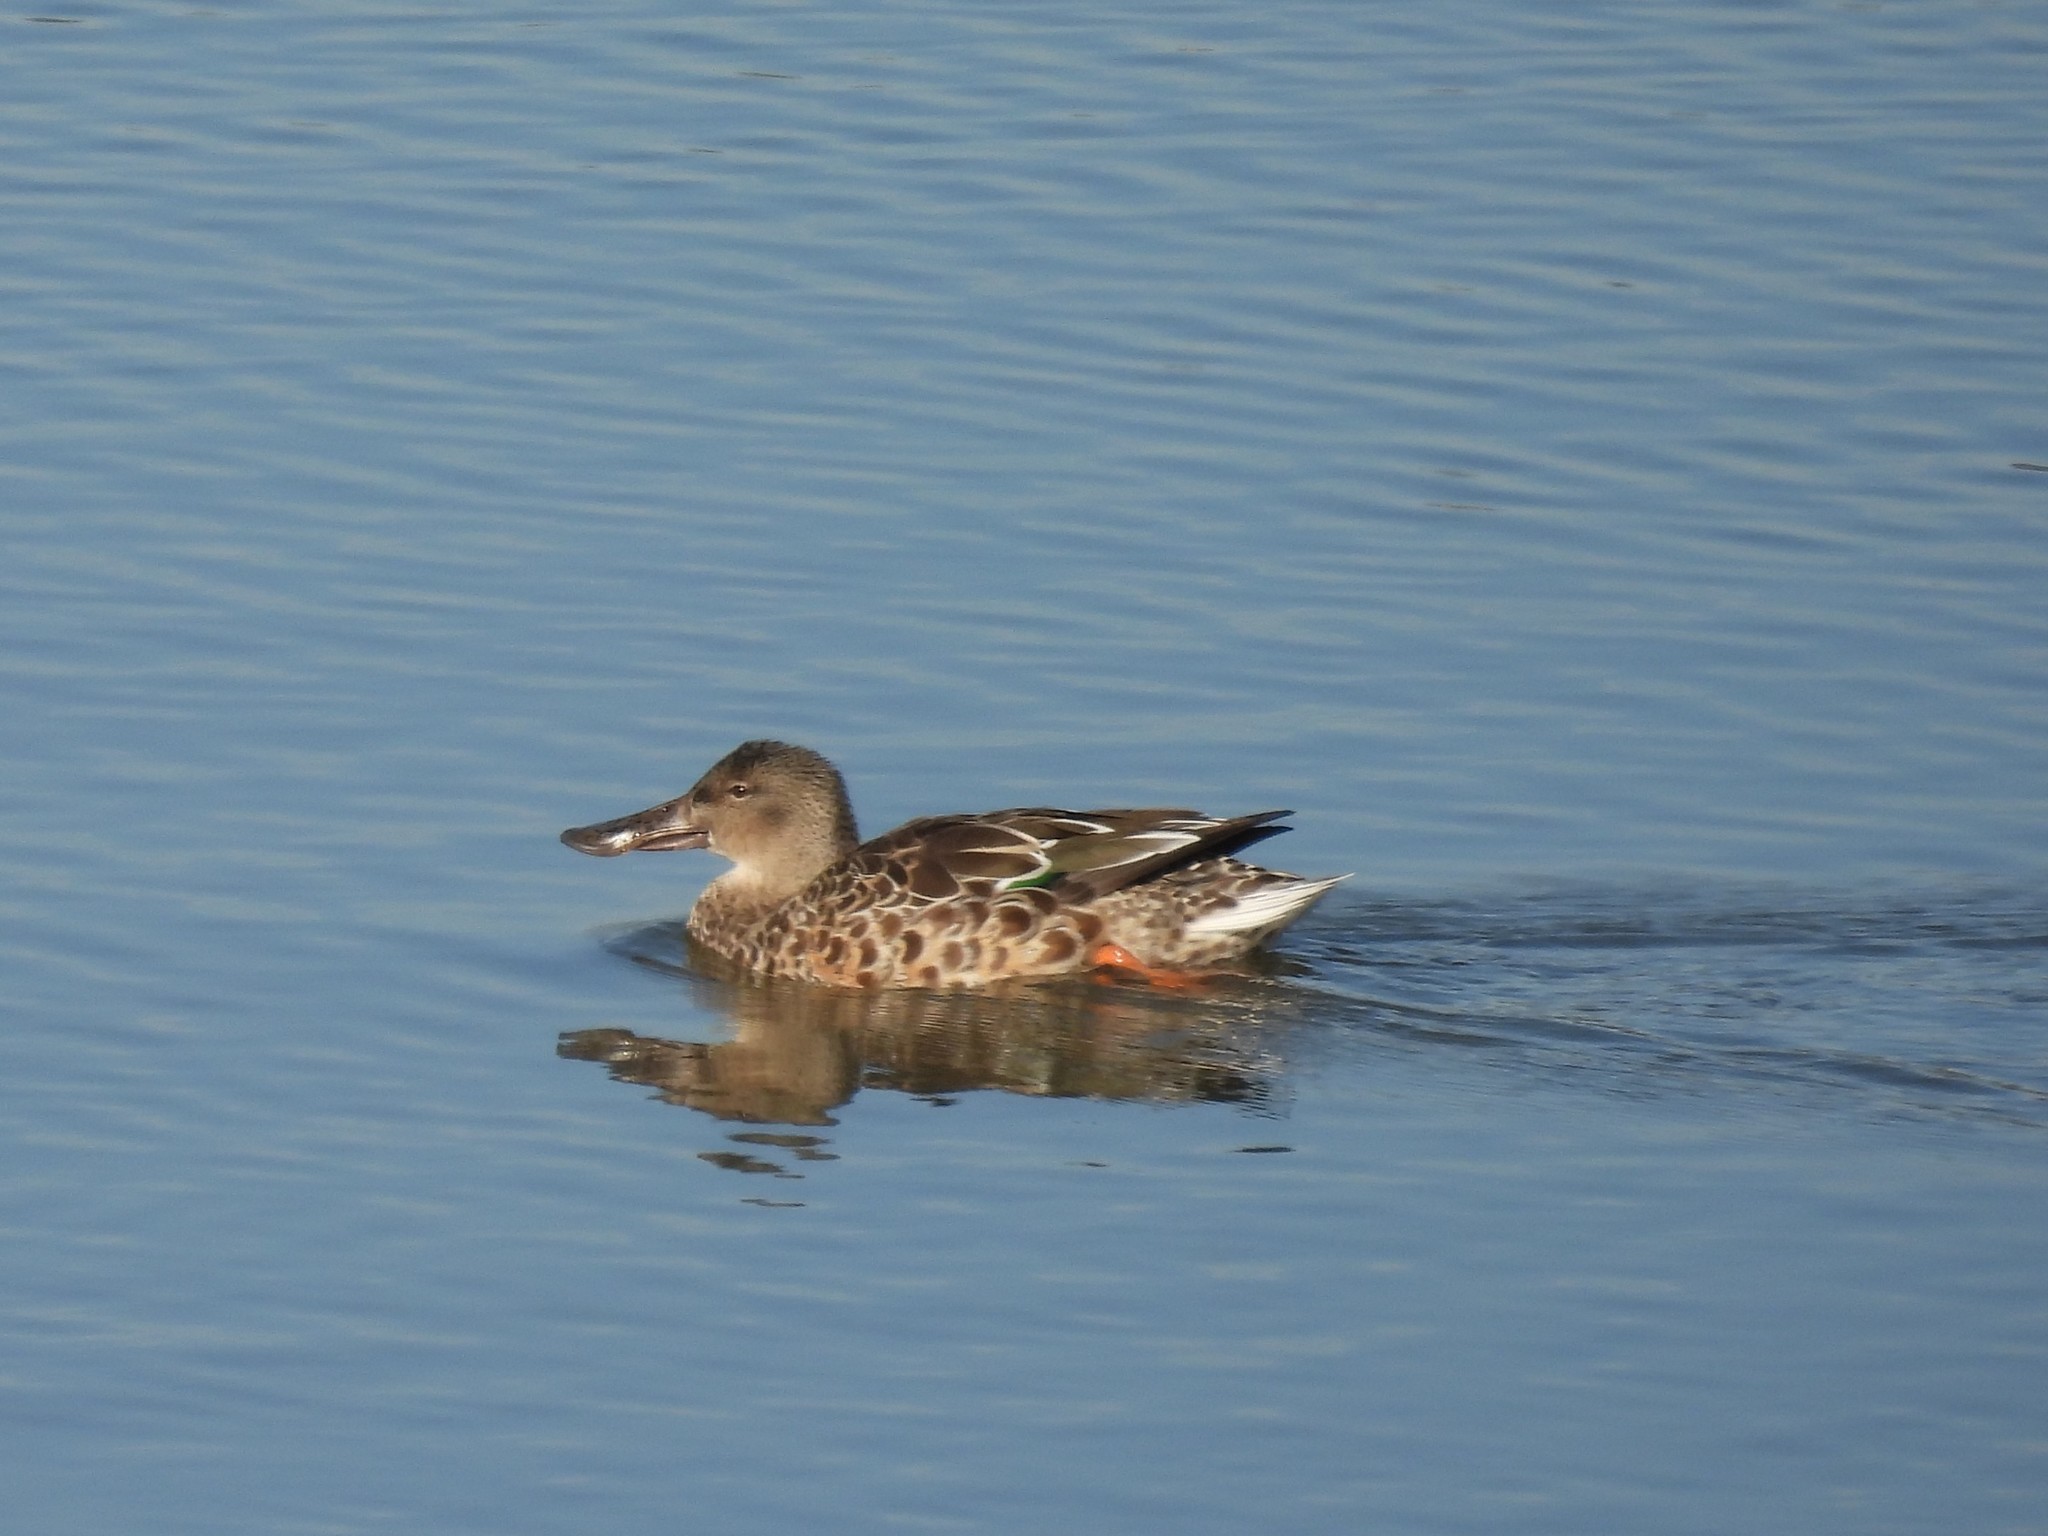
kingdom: Animalia
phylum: Chordata
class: Aves
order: Anseriformes
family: Anatidae
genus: Spatula
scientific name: Spatula clypeata
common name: Northern shoveler
